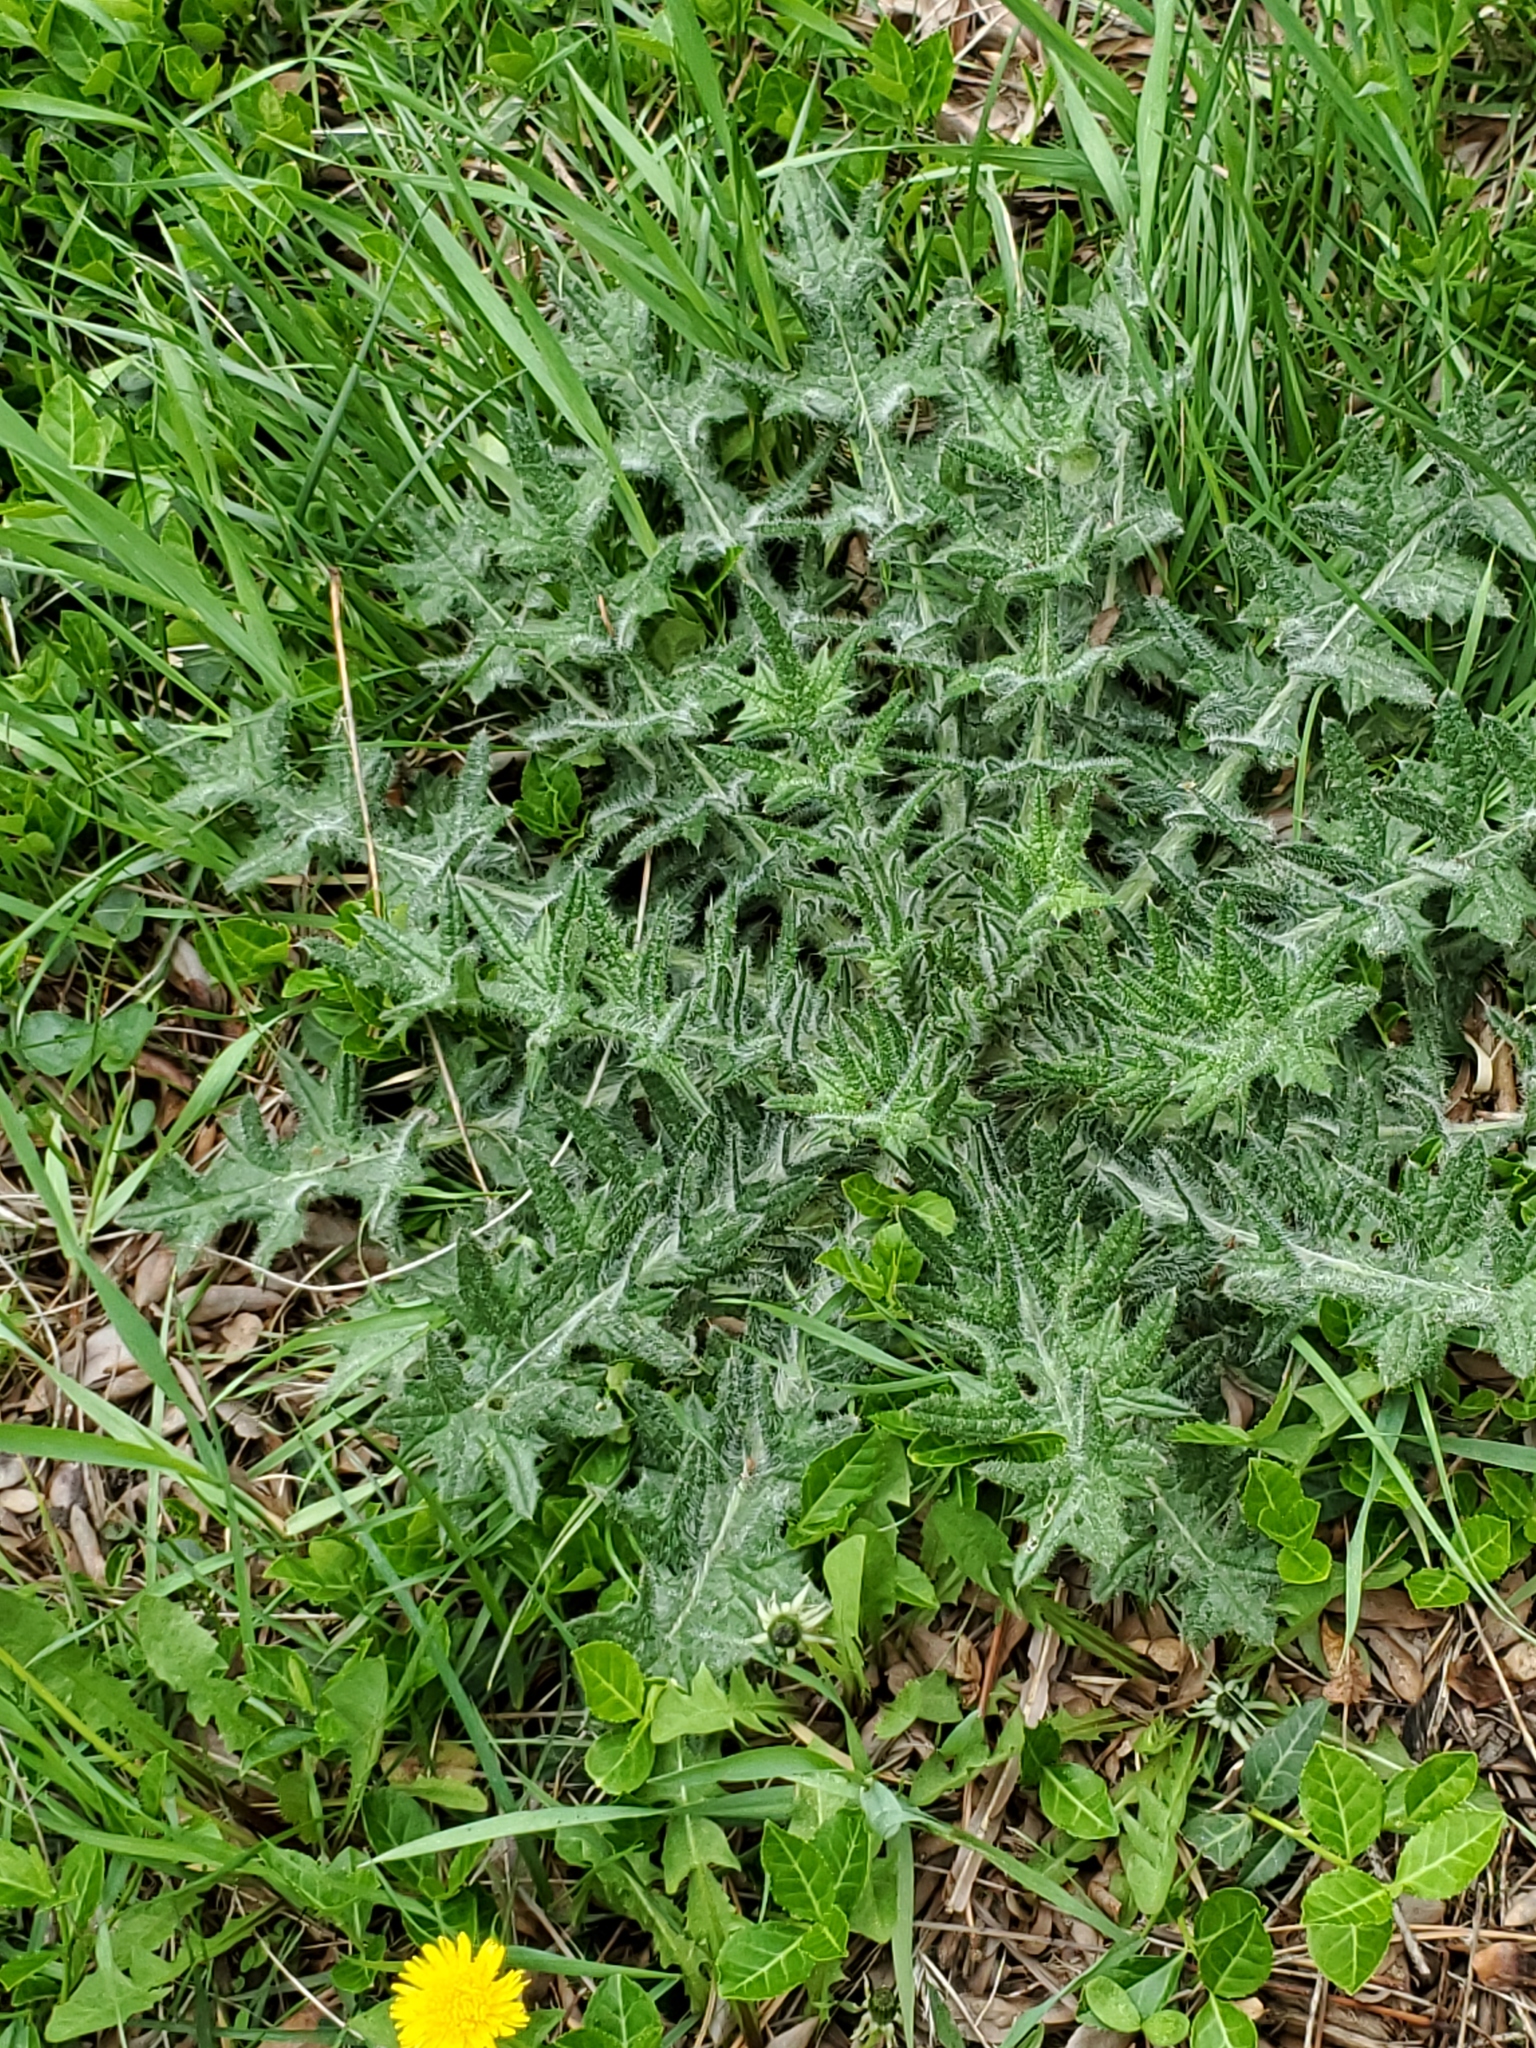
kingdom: Plantae
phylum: Tracheophyta
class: Magnoliopsida
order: Asterales
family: Asteraceae
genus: Cirsium
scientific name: Cirsium vulgare
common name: Bull thistle
